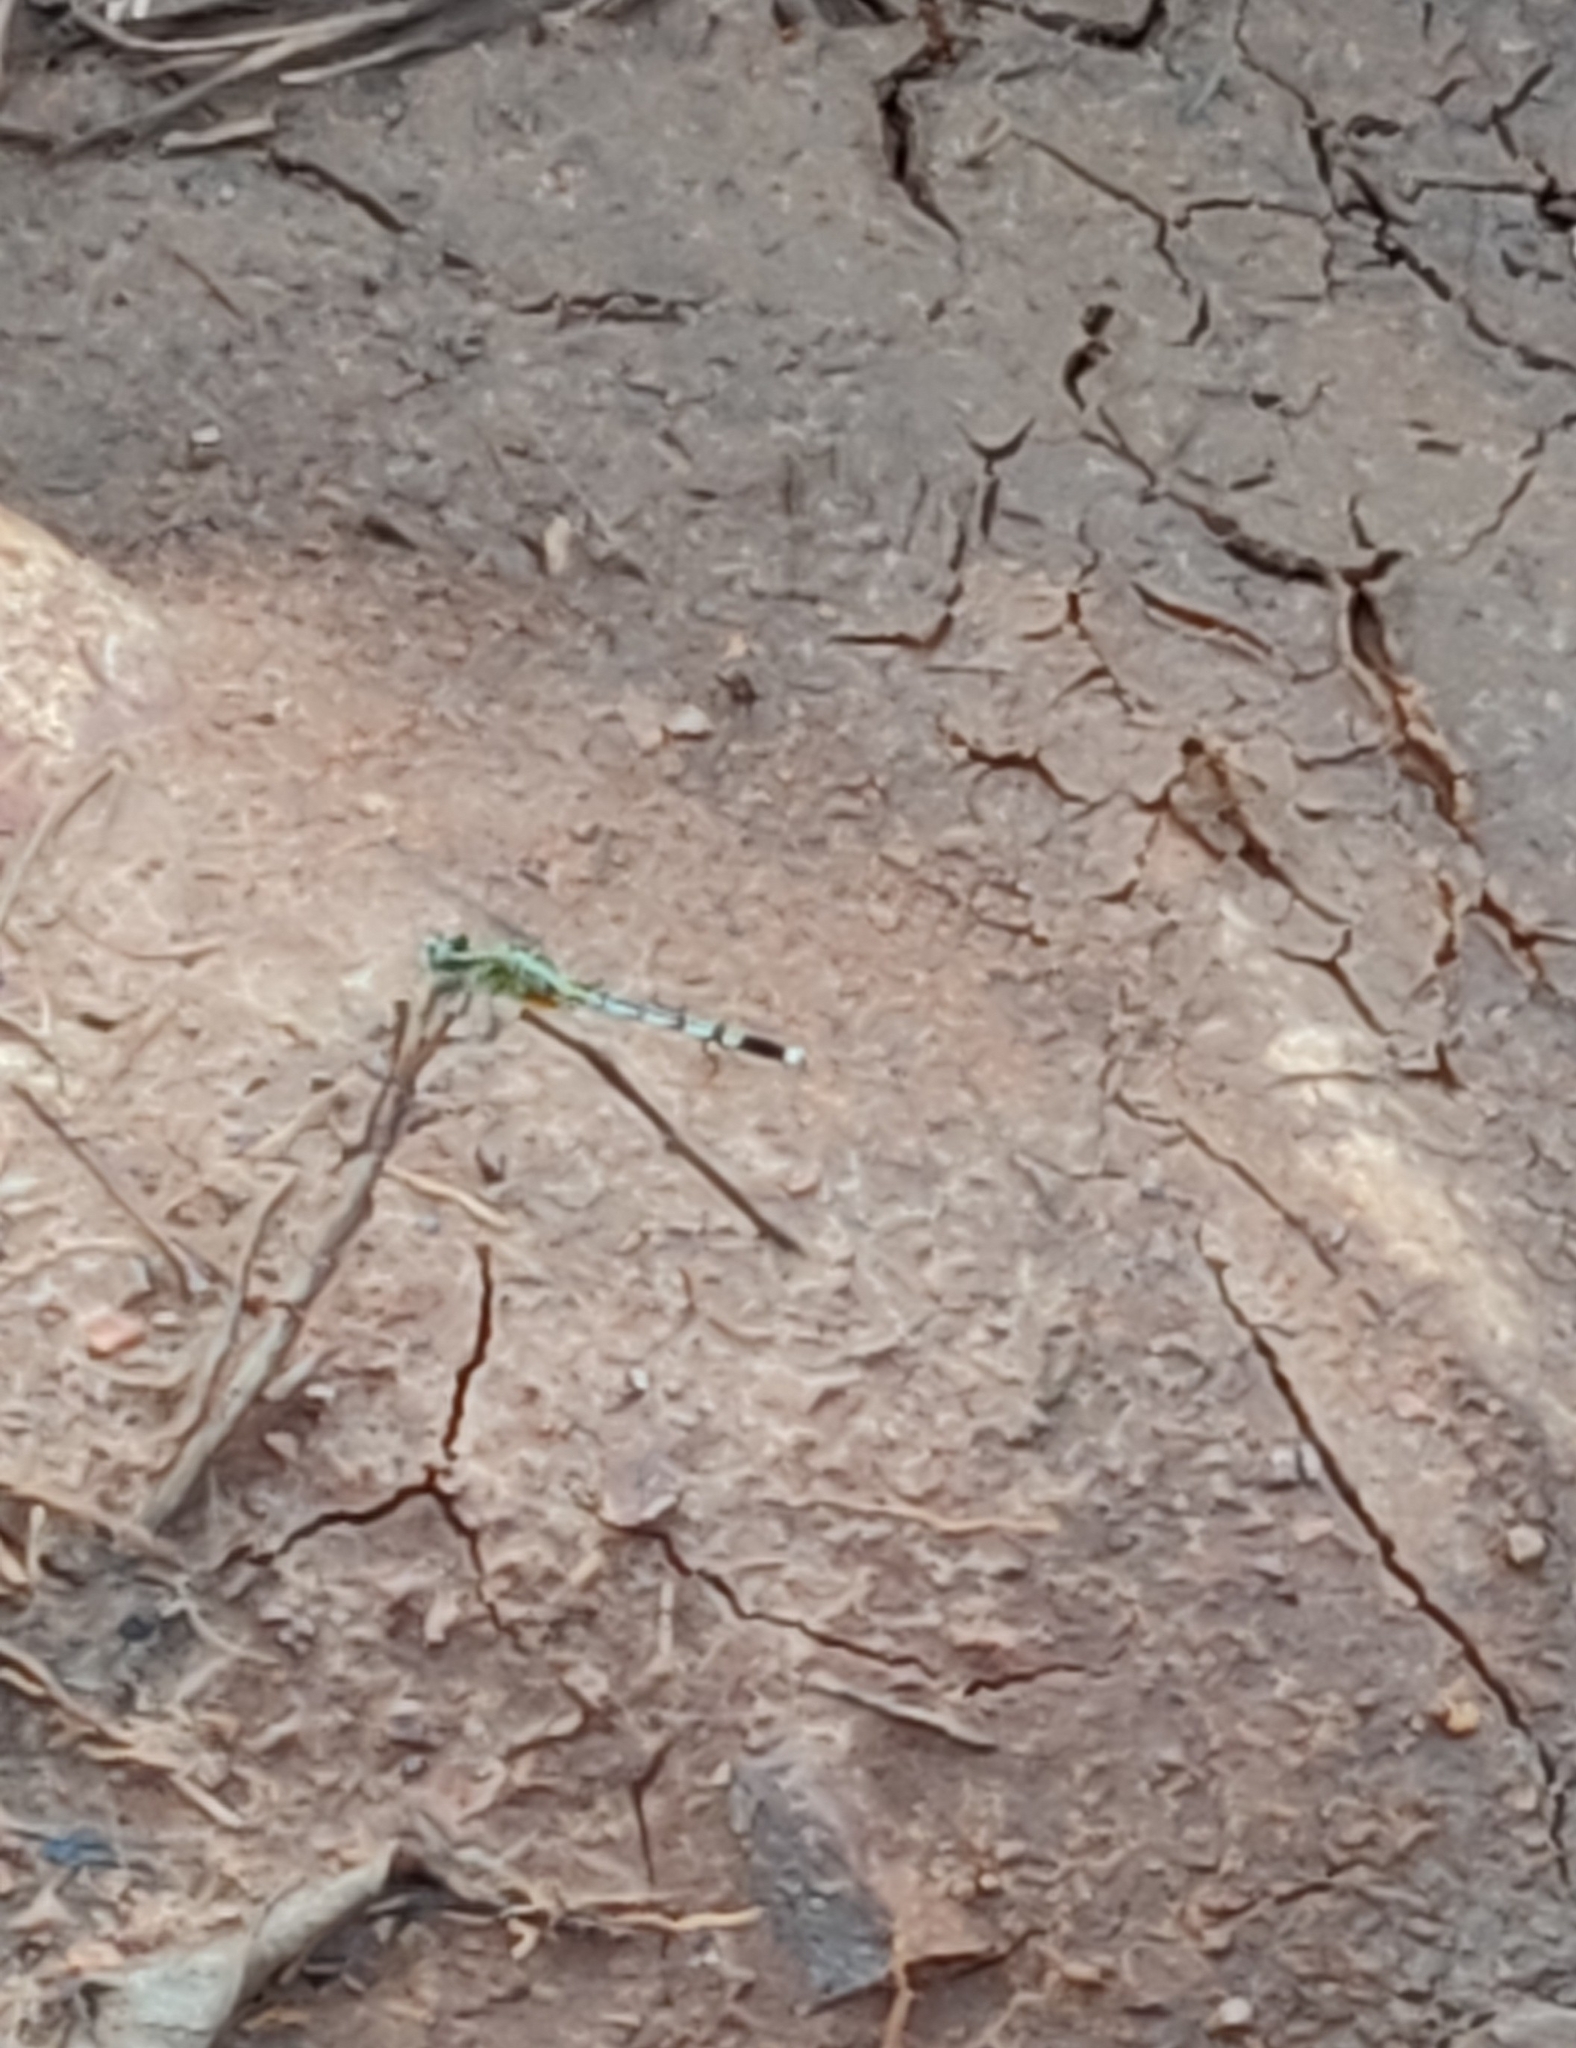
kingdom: Animalia
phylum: Arthropoda
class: Insecta
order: Odonata
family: Libellulidae
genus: Diplacodes
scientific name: Diplacodes trivialis
